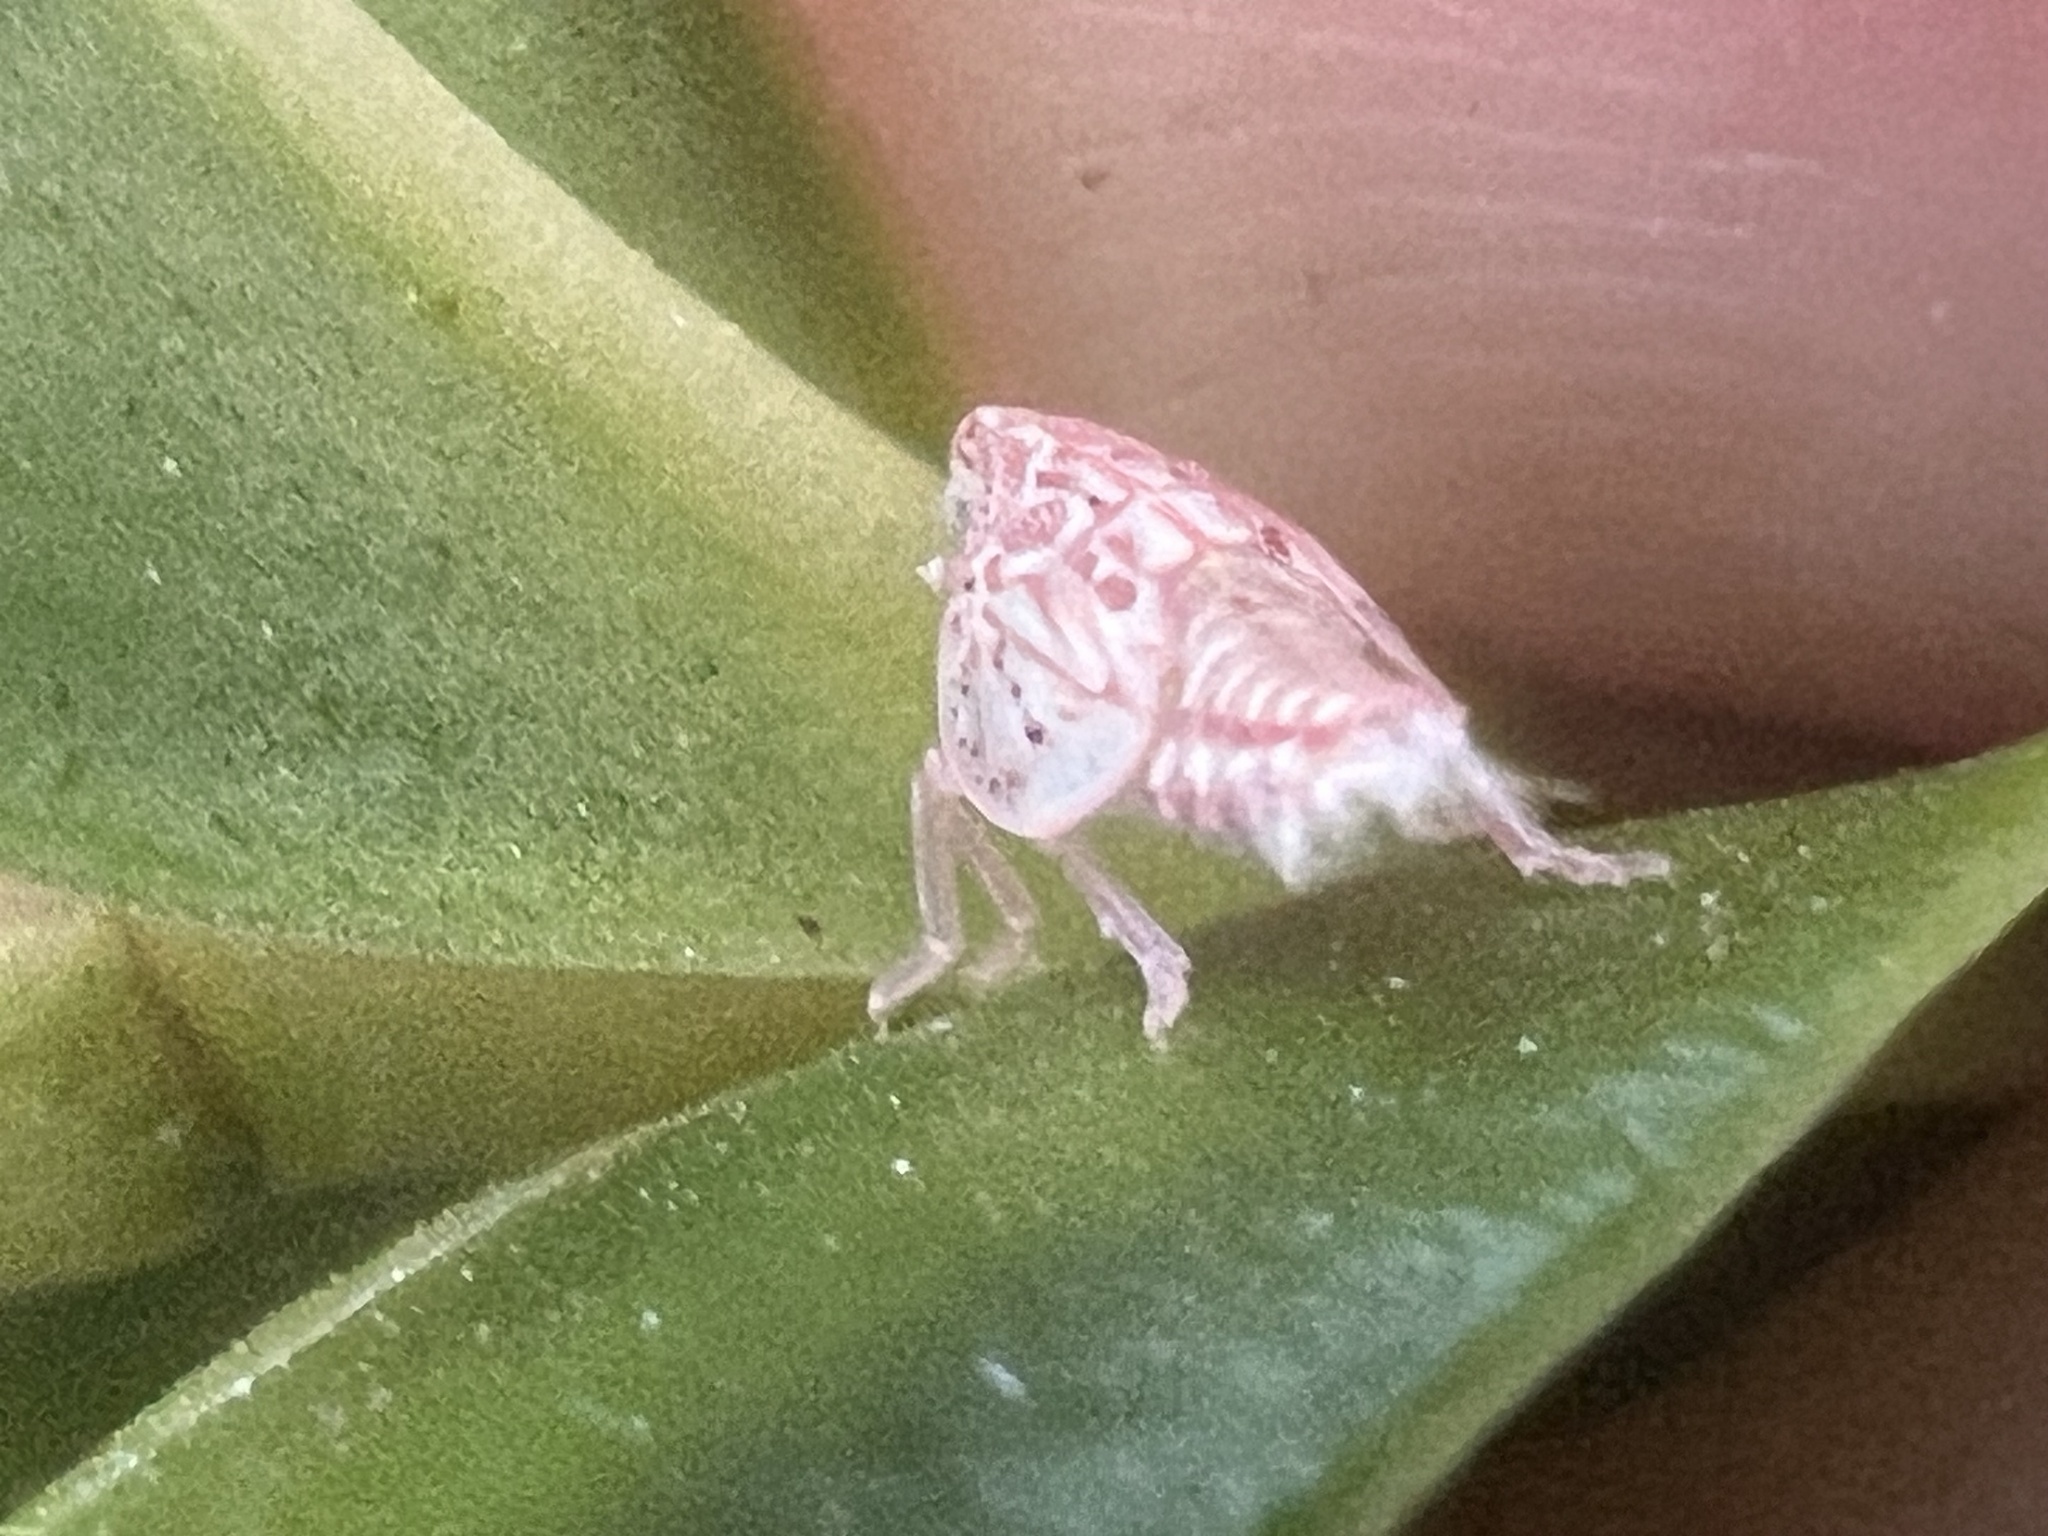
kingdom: Animalia
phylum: Arthropoda
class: Insecta
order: Hemiptera
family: Flatidae
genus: Siphanta
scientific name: Siphanta acuta
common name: Torpedo bug
